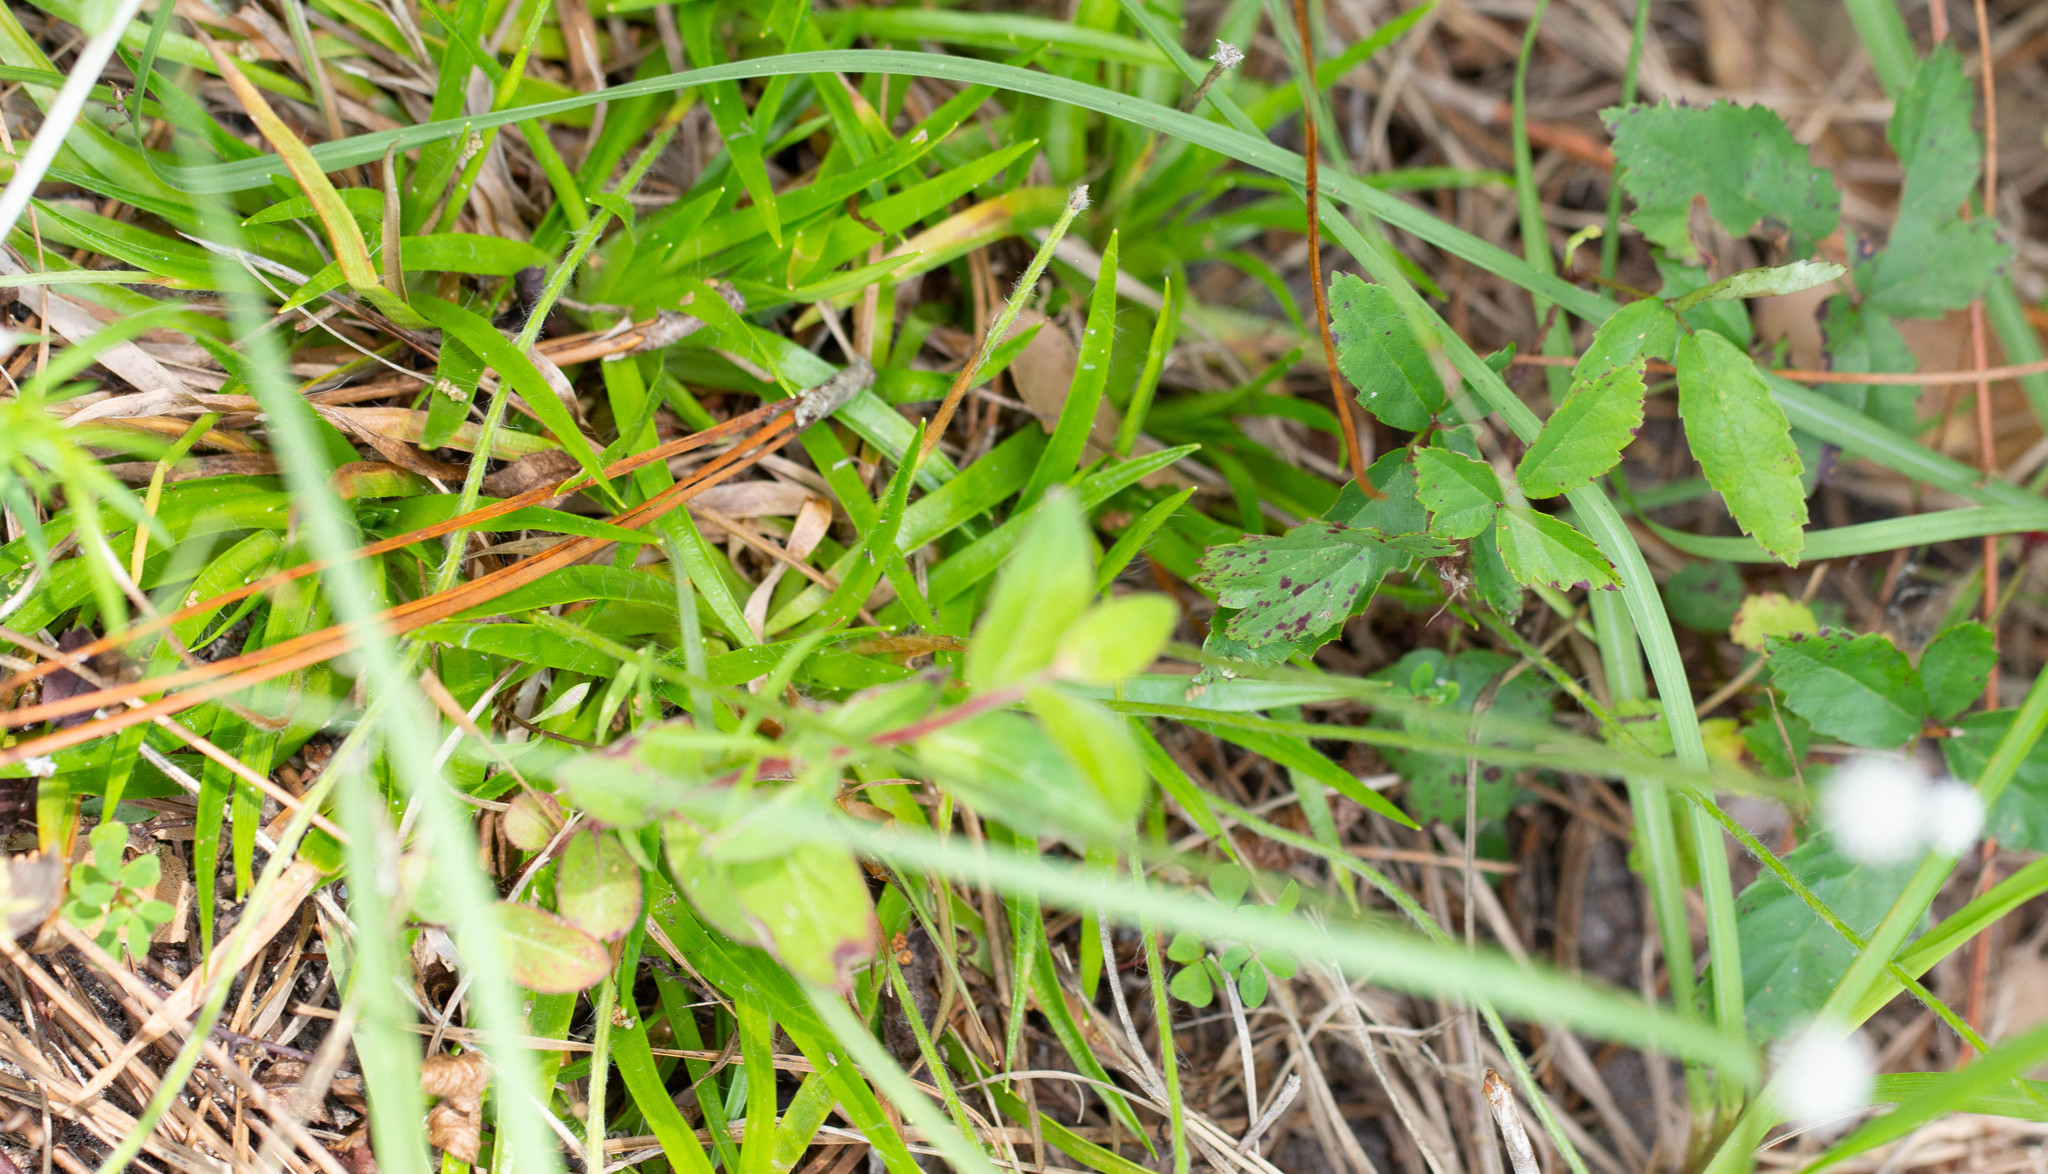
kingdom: Plantae
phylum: Tracheophyta
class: Liliopsida
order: Poales
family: Eriocaulaceae
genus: Paepalanthus
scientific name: Paepalanthus anceps
